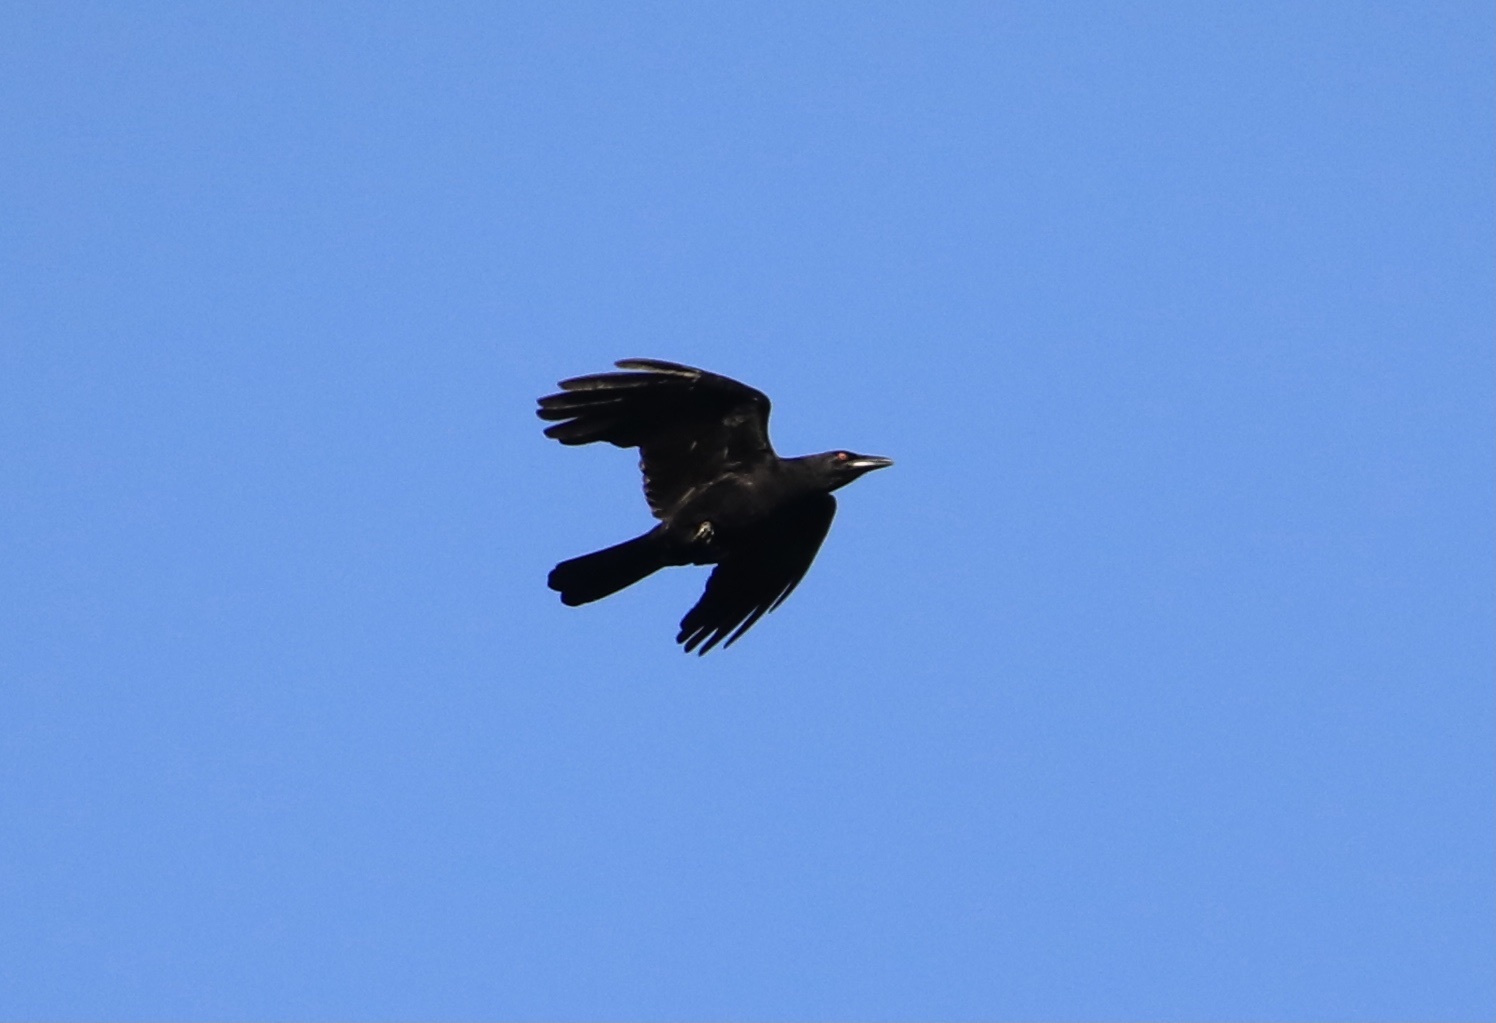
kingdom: Animalia
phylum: Chordata
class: Aves
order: Passeriformes
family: Corvidae
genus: Corvus
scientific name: Corvus leucognaphalus
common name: White-necked crow
